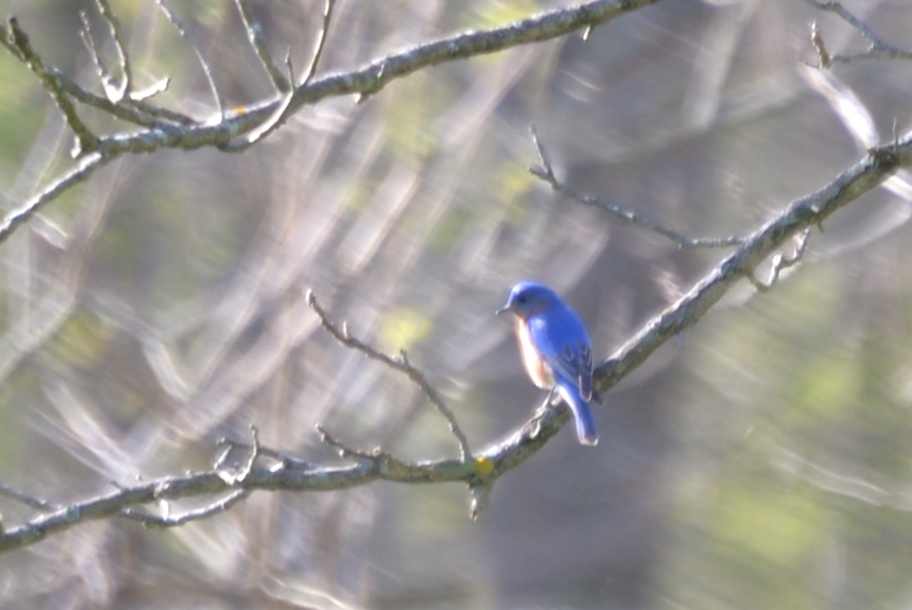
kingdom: Animalia
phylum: Chordata
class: Aves
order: Passeriformes
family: Turdidae
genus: Sialia
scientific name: Sialia sialis
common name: Eastern bluebird
